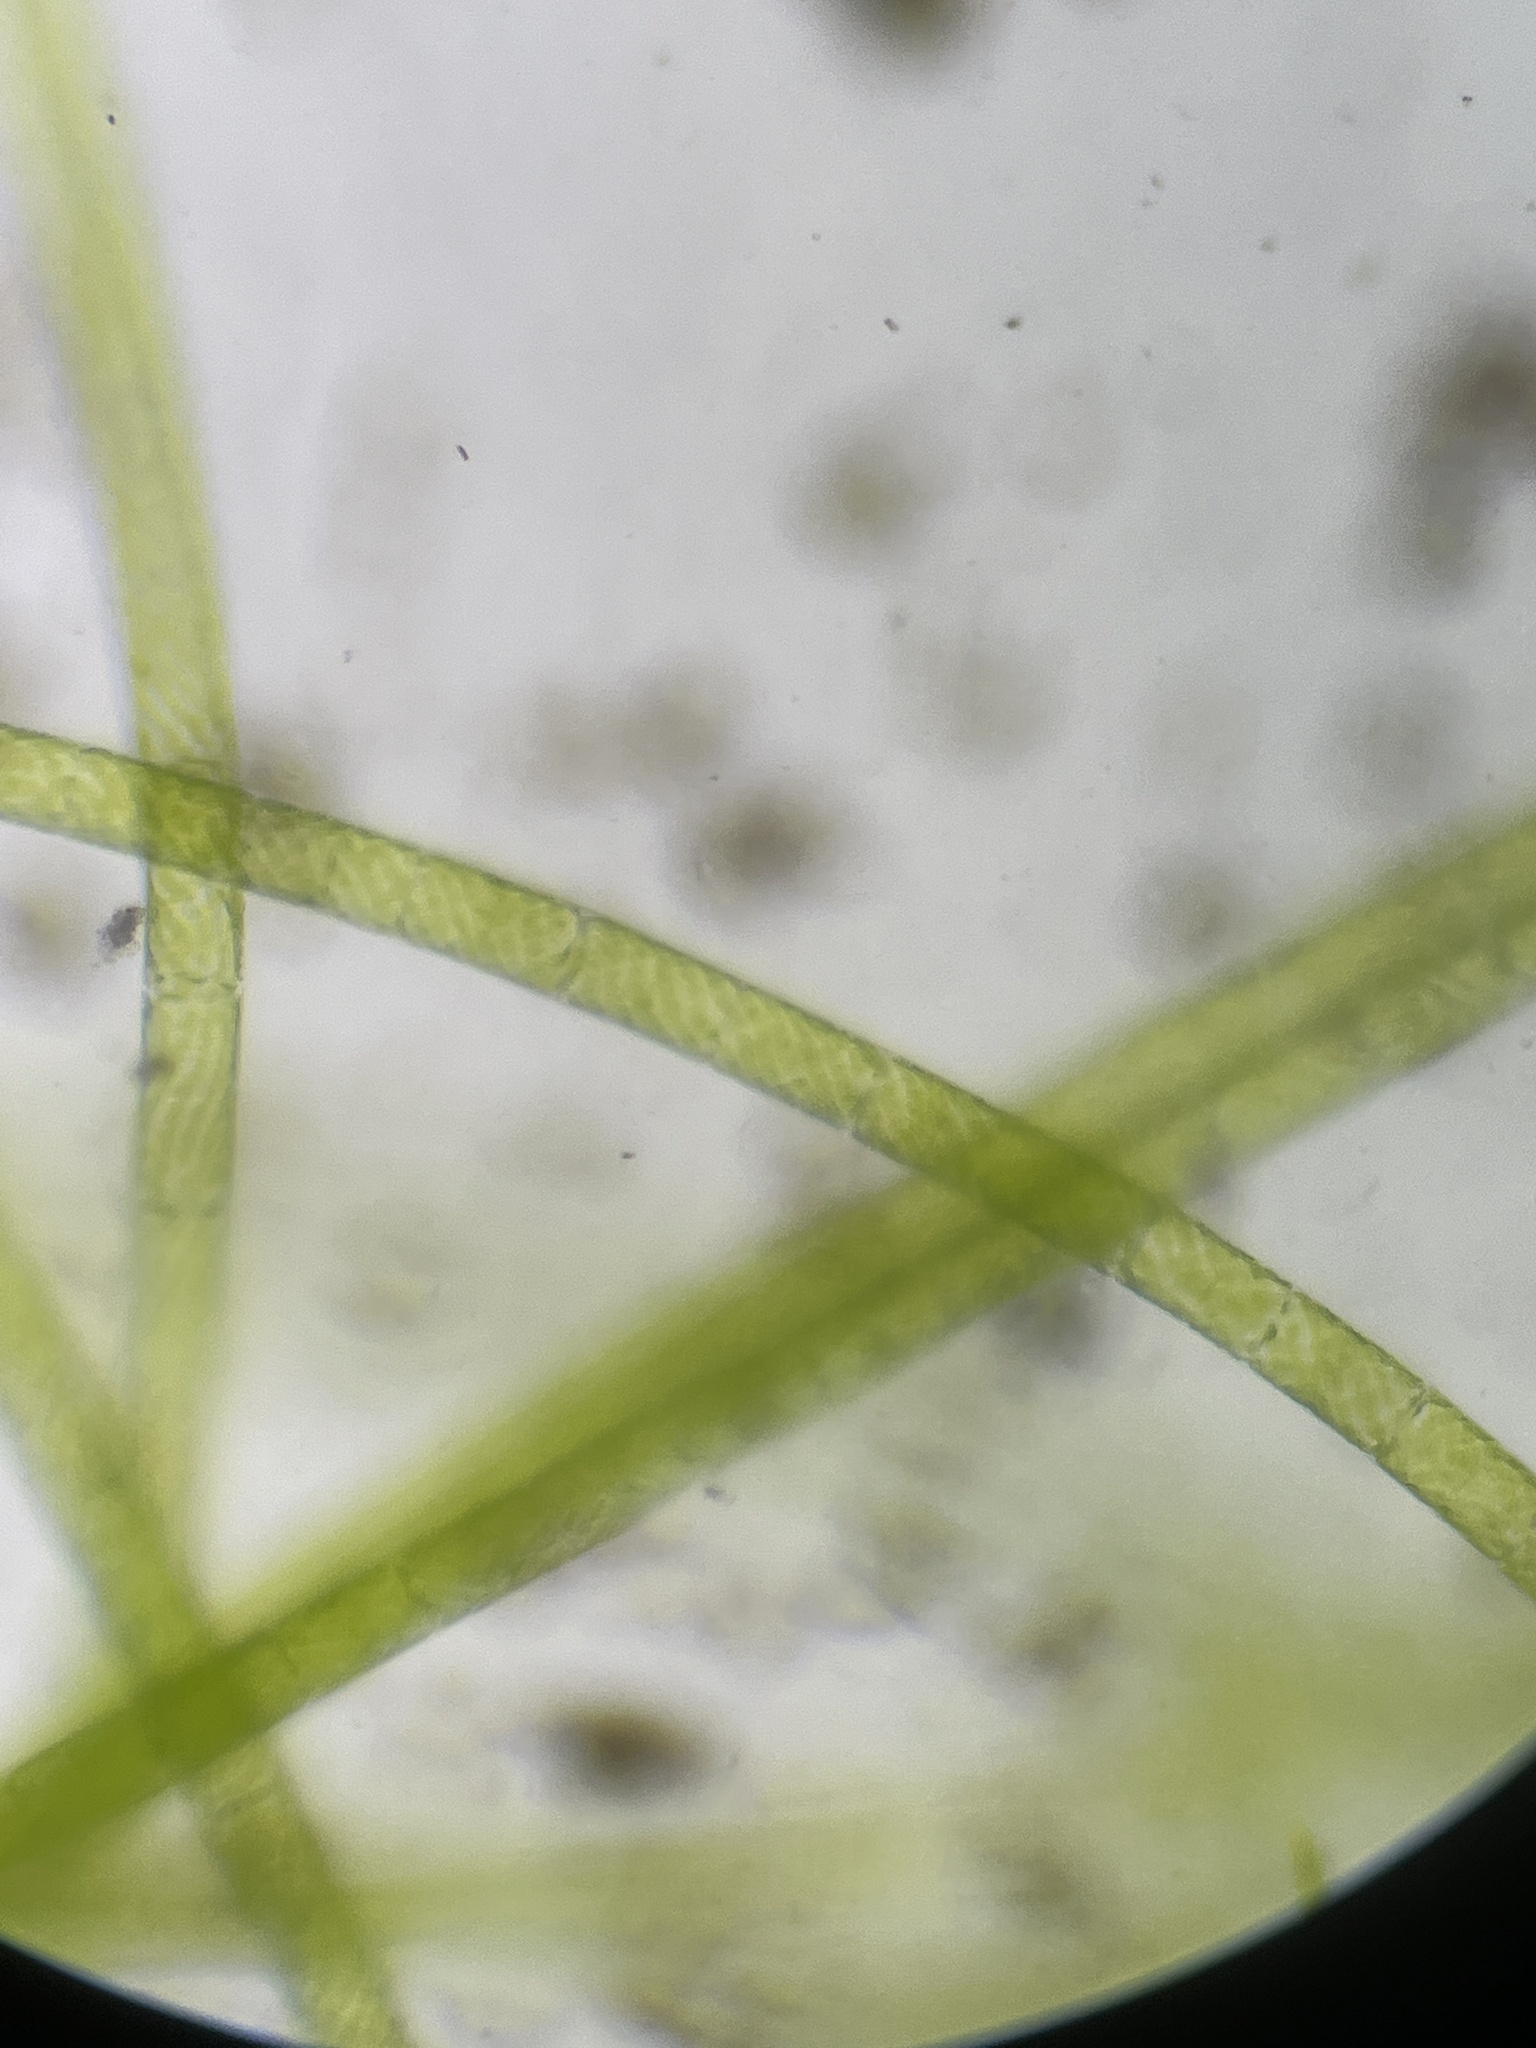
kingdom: Plantae
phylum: Charophyta
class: Zygnematophyceae
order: Zygnematales
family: Zygnemataceae
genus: Spirogyra
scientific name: Spirogyra
